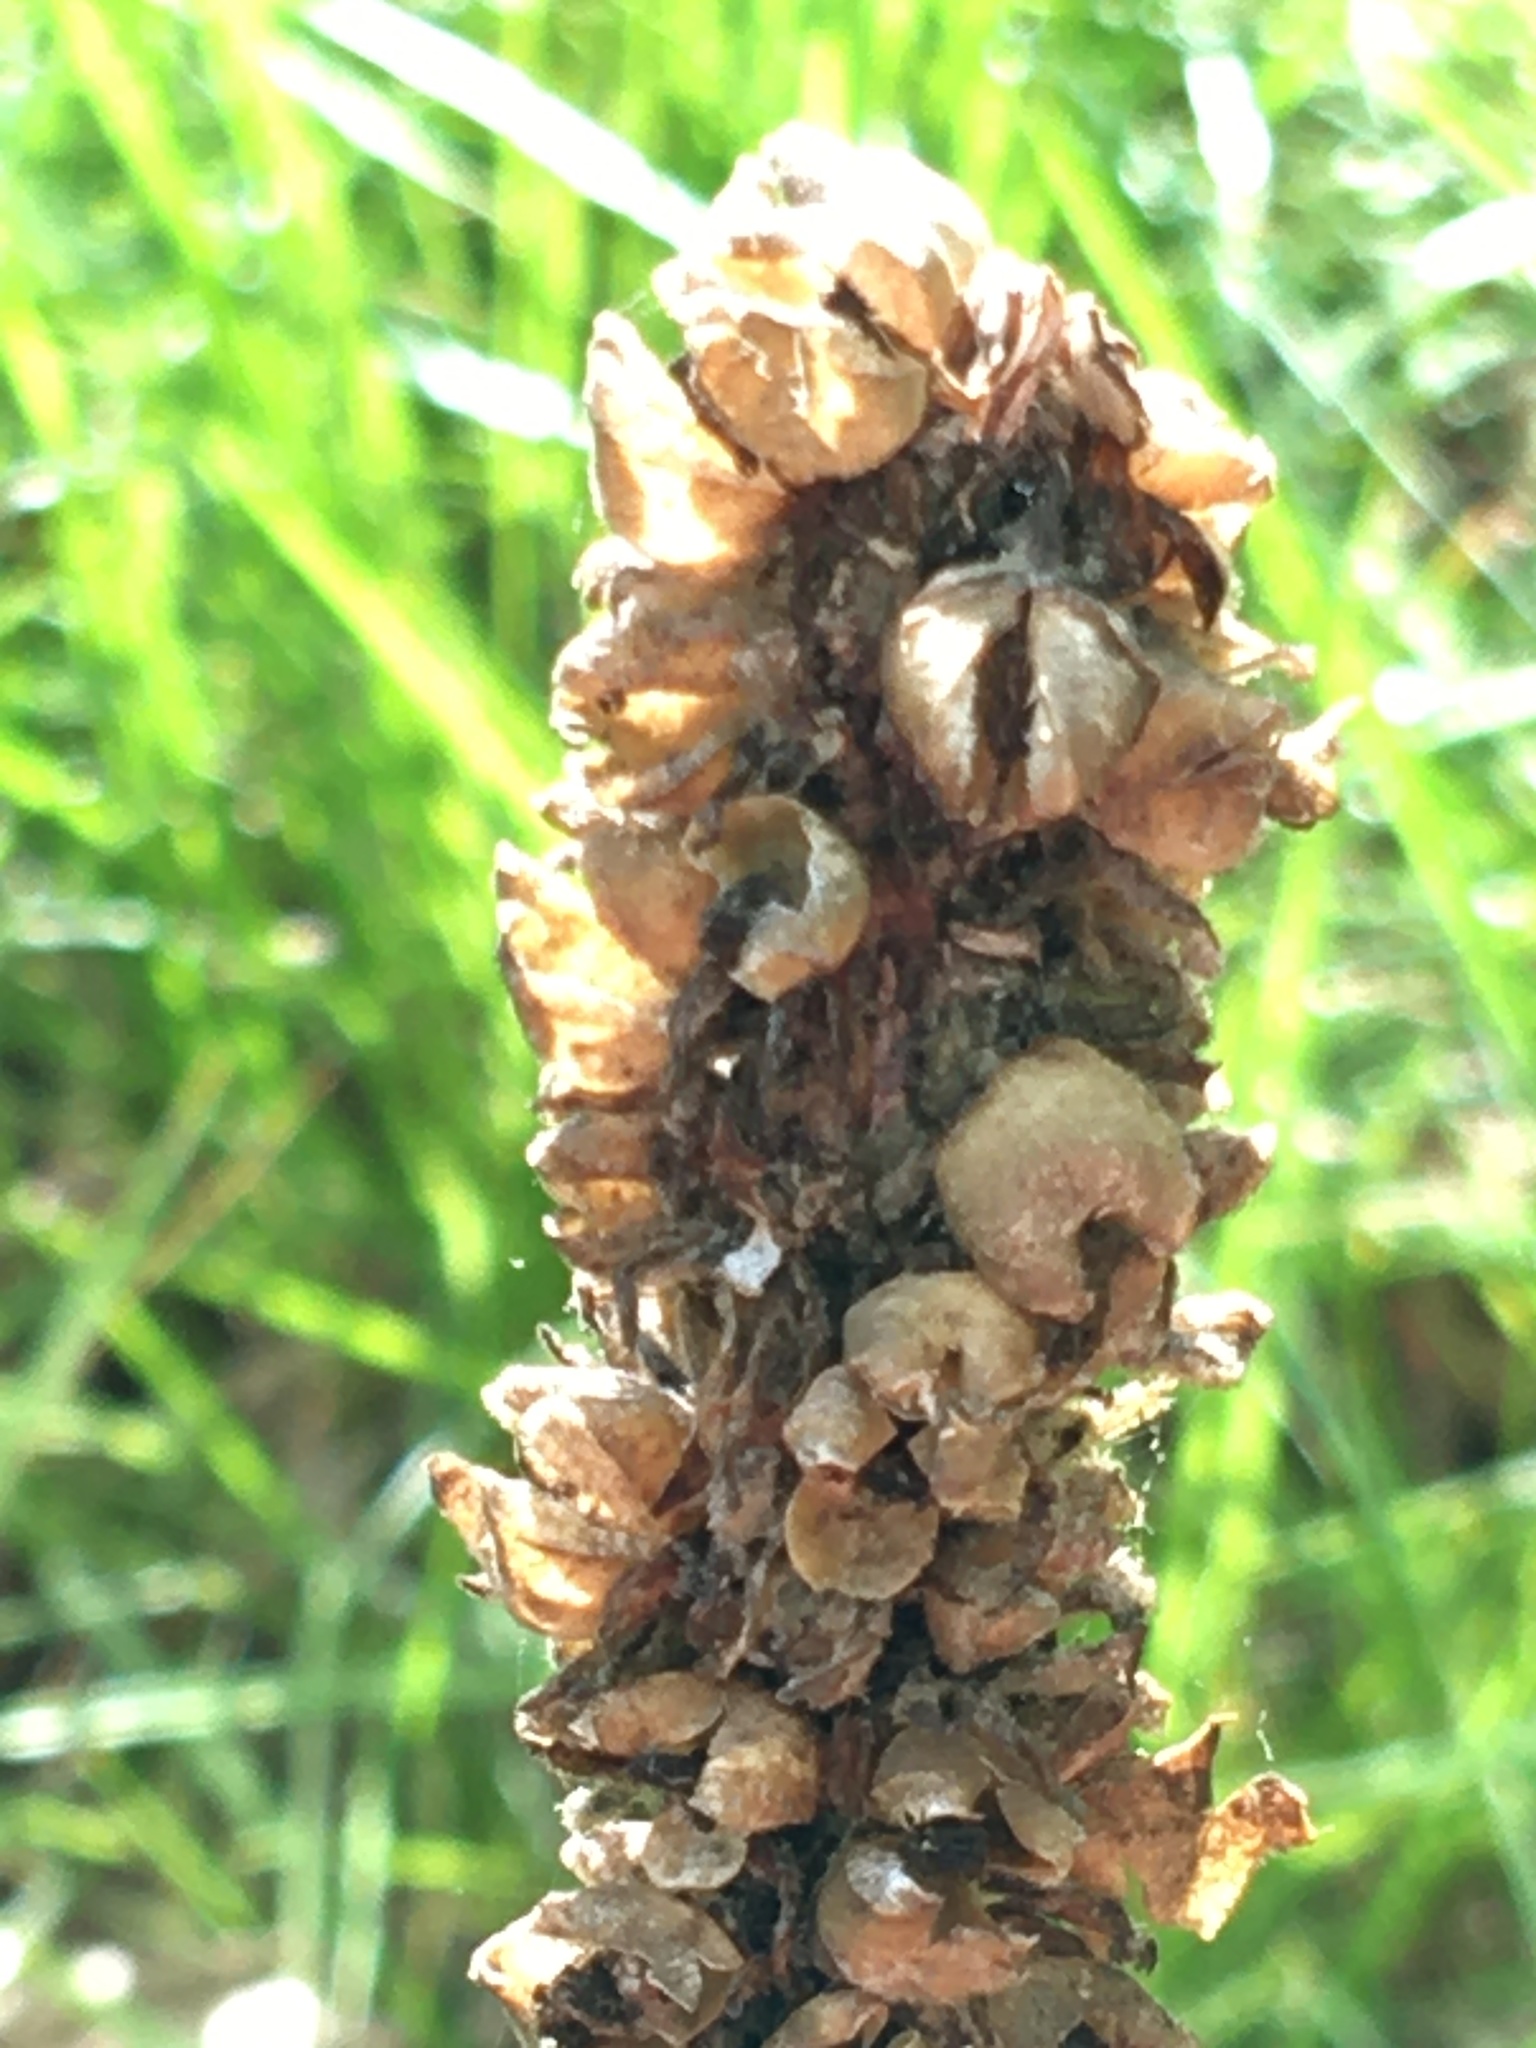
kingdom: Plantae
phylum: Tracheophyta
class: Magnoliopsida
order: Lamiales
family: Scrophulariaceae
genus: Verbascum
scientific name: Verbascum thapsus
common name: Common mullein
